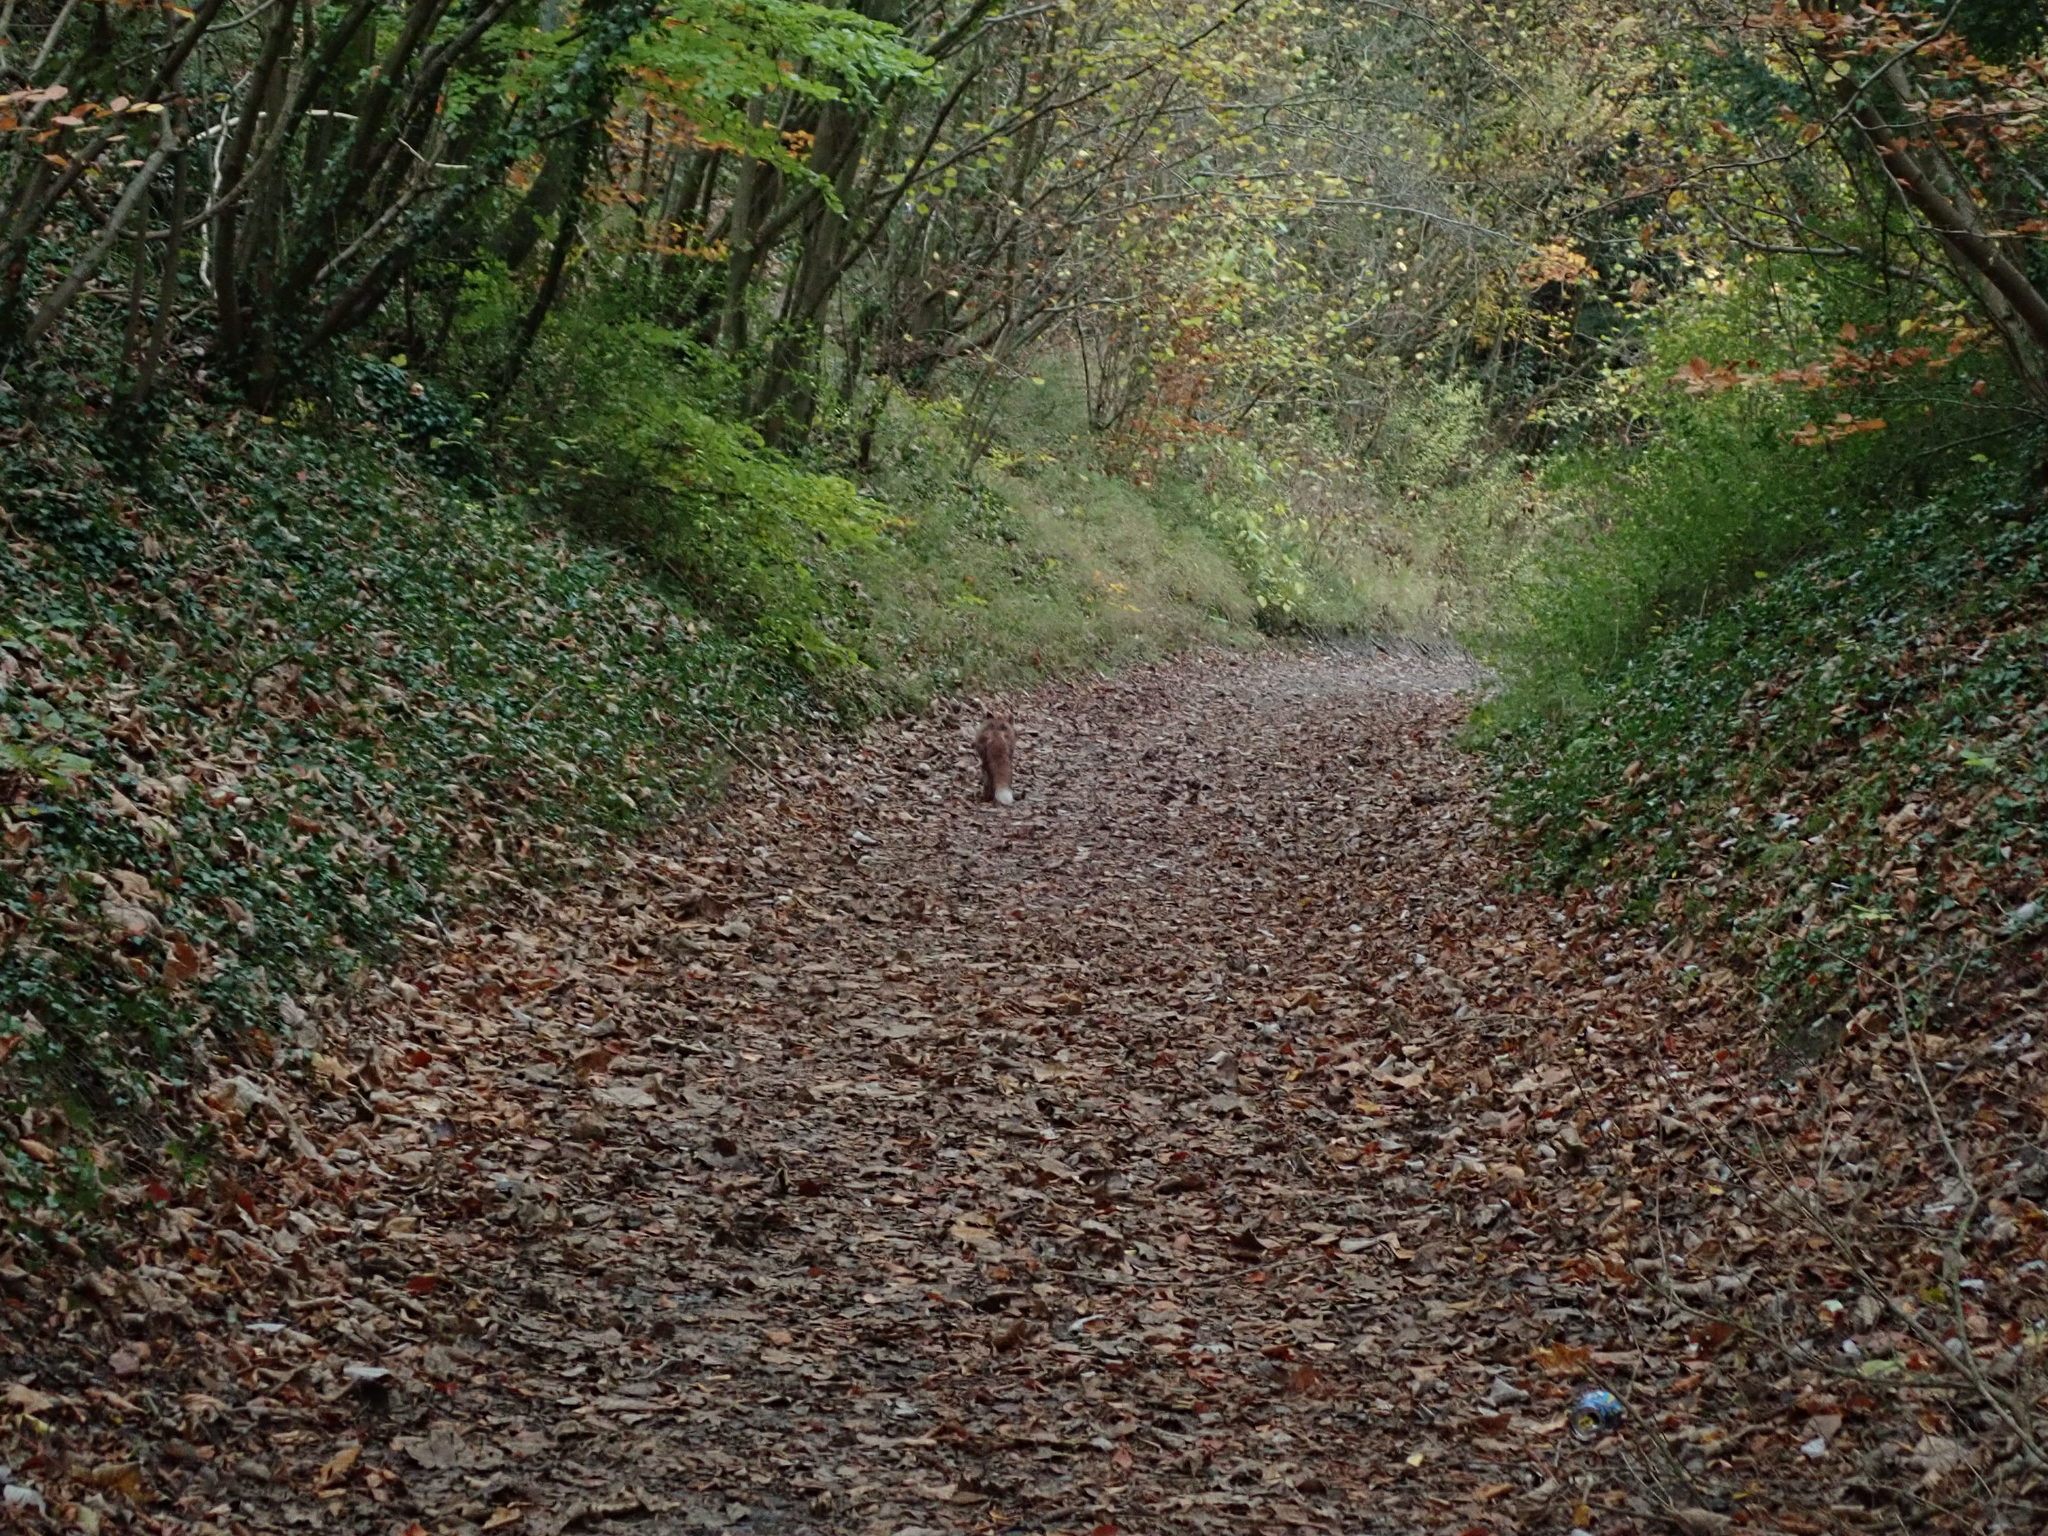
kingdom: Animalia
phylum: Chordata
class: Mammalia
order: Carnivora
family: Canidae
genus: Vulpes
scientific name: Vulpes vulpes
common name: Red fox
